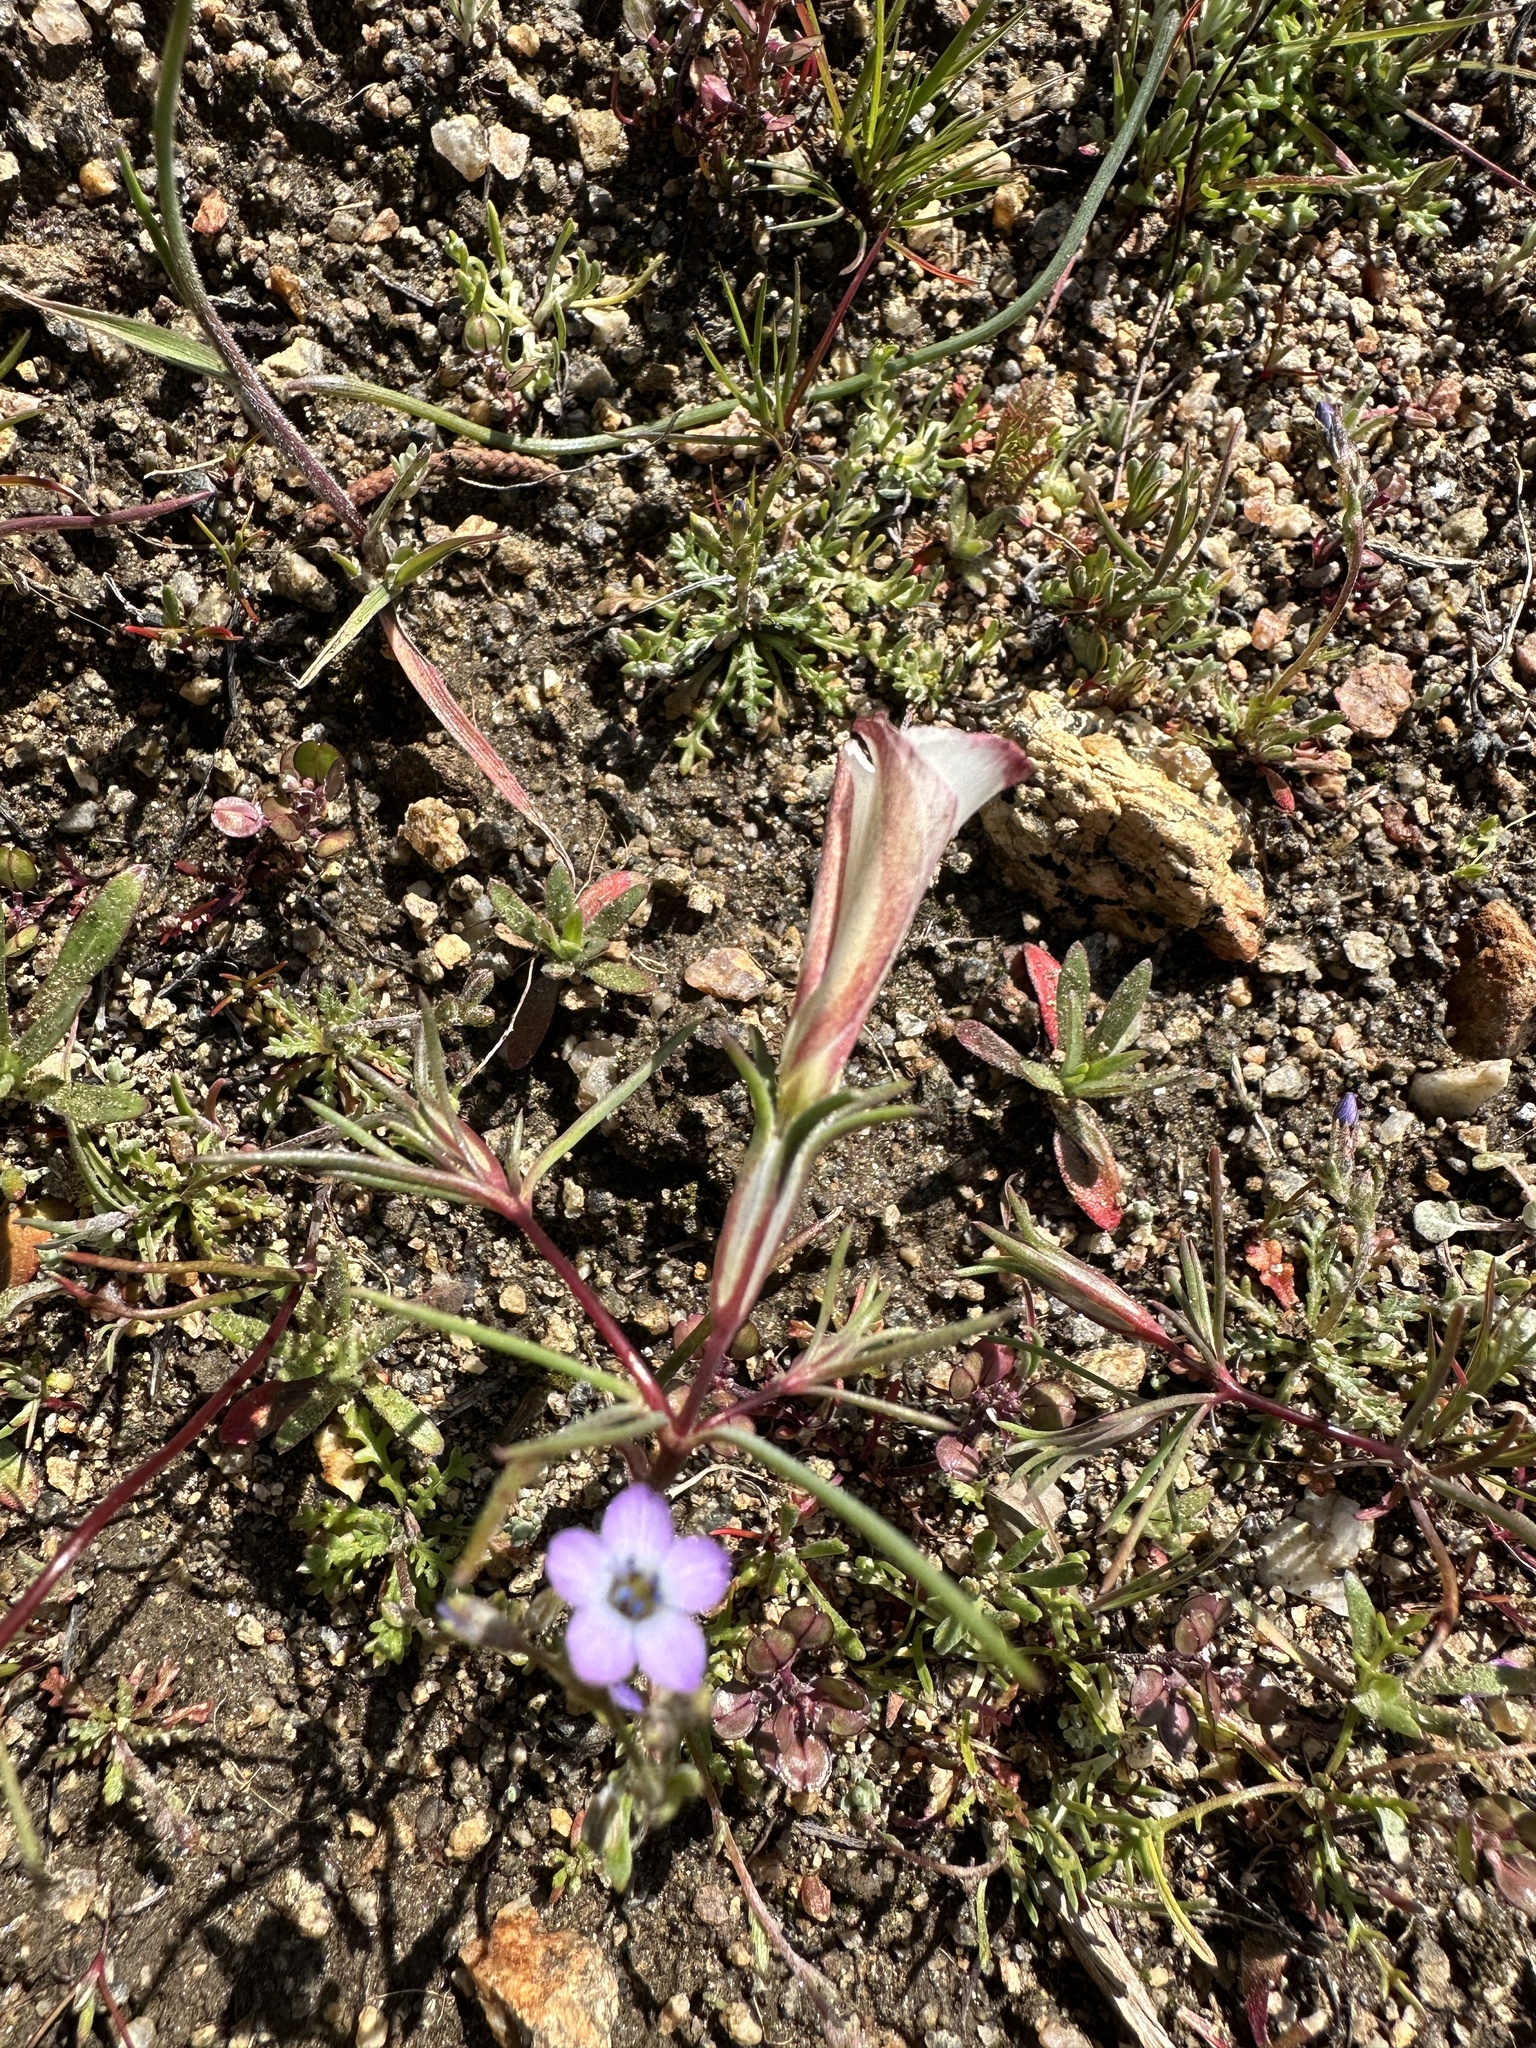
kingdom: Plantae
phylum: Tracheophyta
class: Magnoliopsida
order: Ericales
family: Polemoniaceae
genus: Linanthus
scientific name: Linanthus dichotomus
